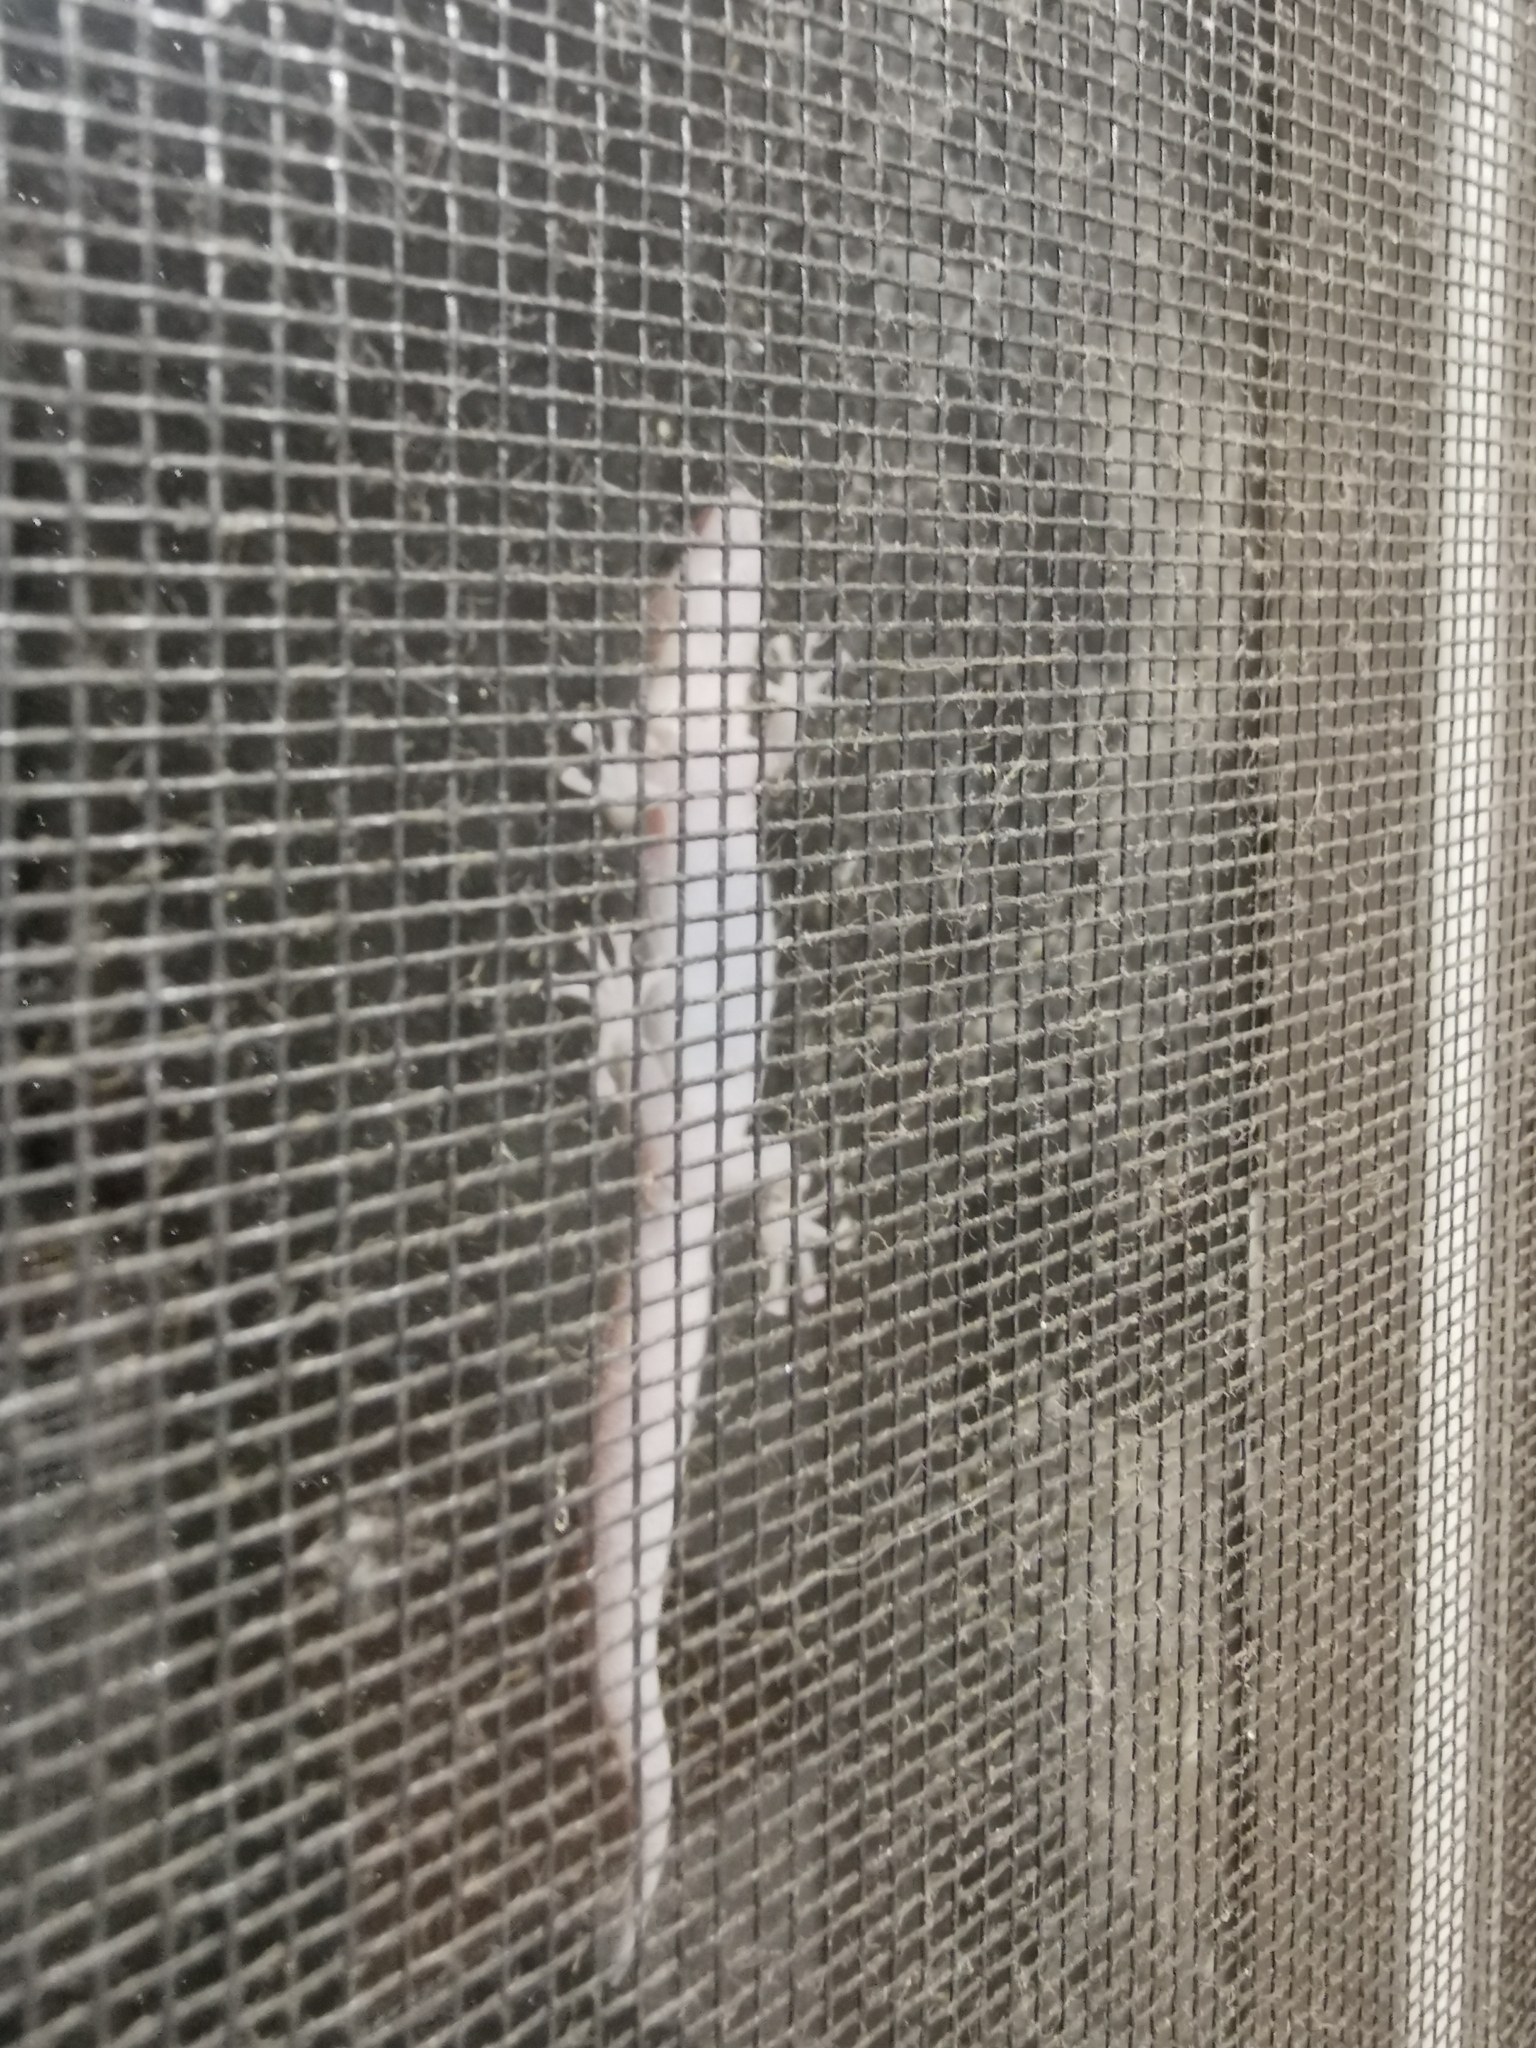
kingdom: Animalia
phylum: Chordata
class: Squamata
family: Gekkonidae
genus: Christinus
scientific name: Christinus marmoratus
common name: Marbled gecko
